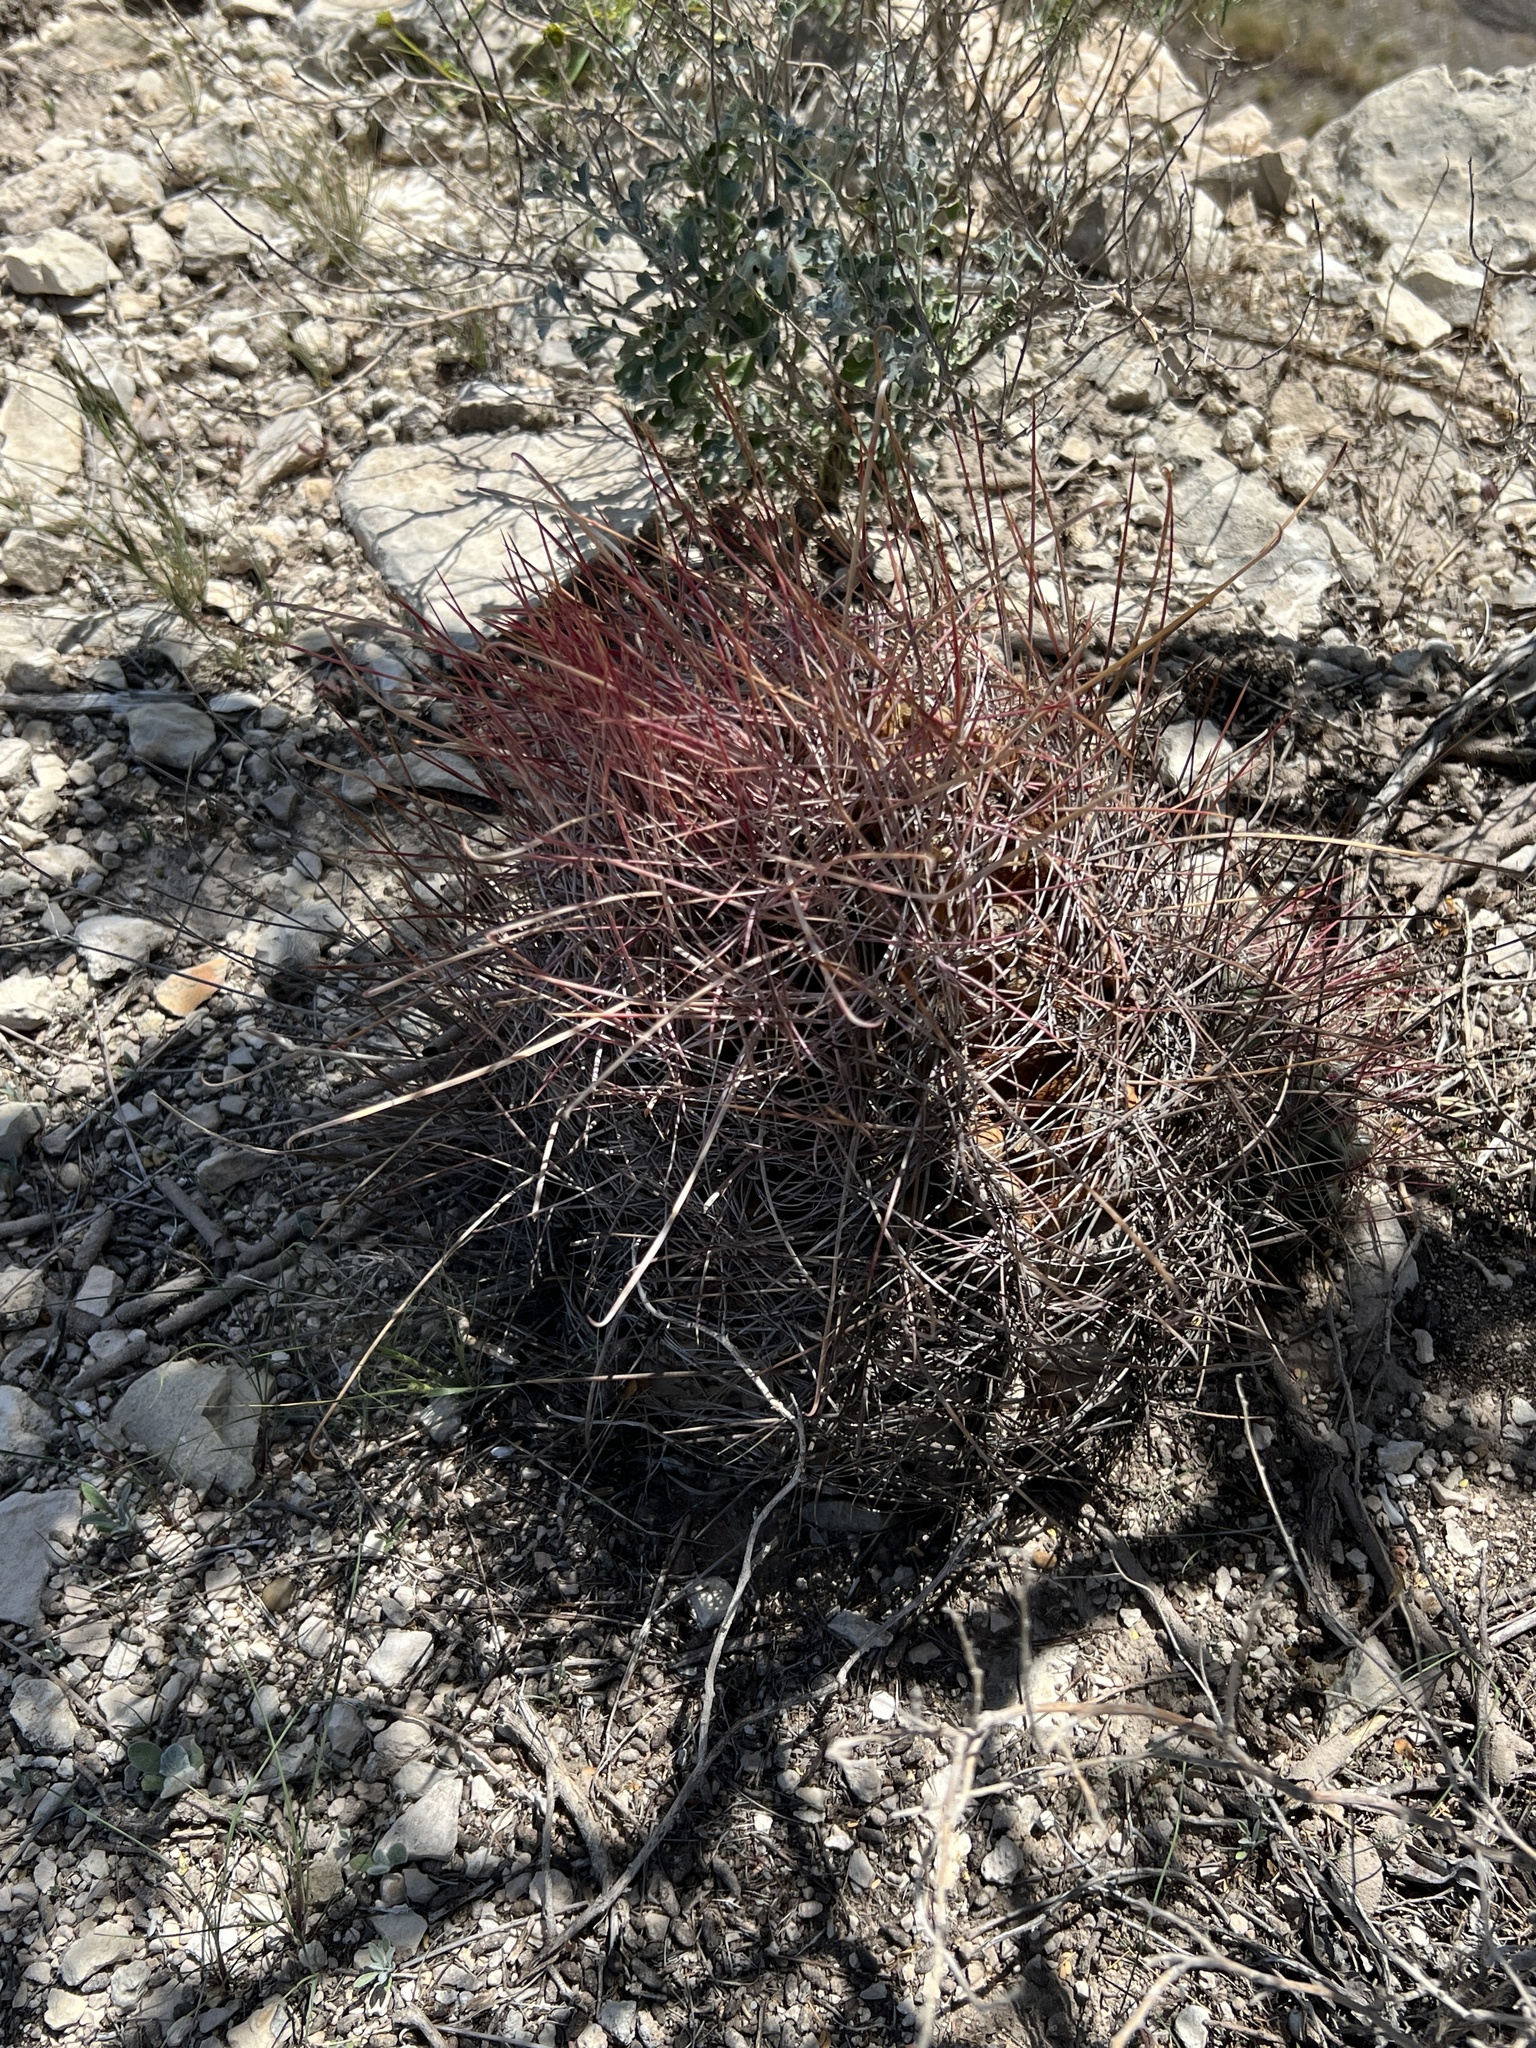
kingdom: Plantae
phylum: Tracheophyta
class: Magnoliopsida
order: Caryophyllales
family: Cactaceae
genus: Bisnaga
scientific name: Bisnaga hamatacantha
